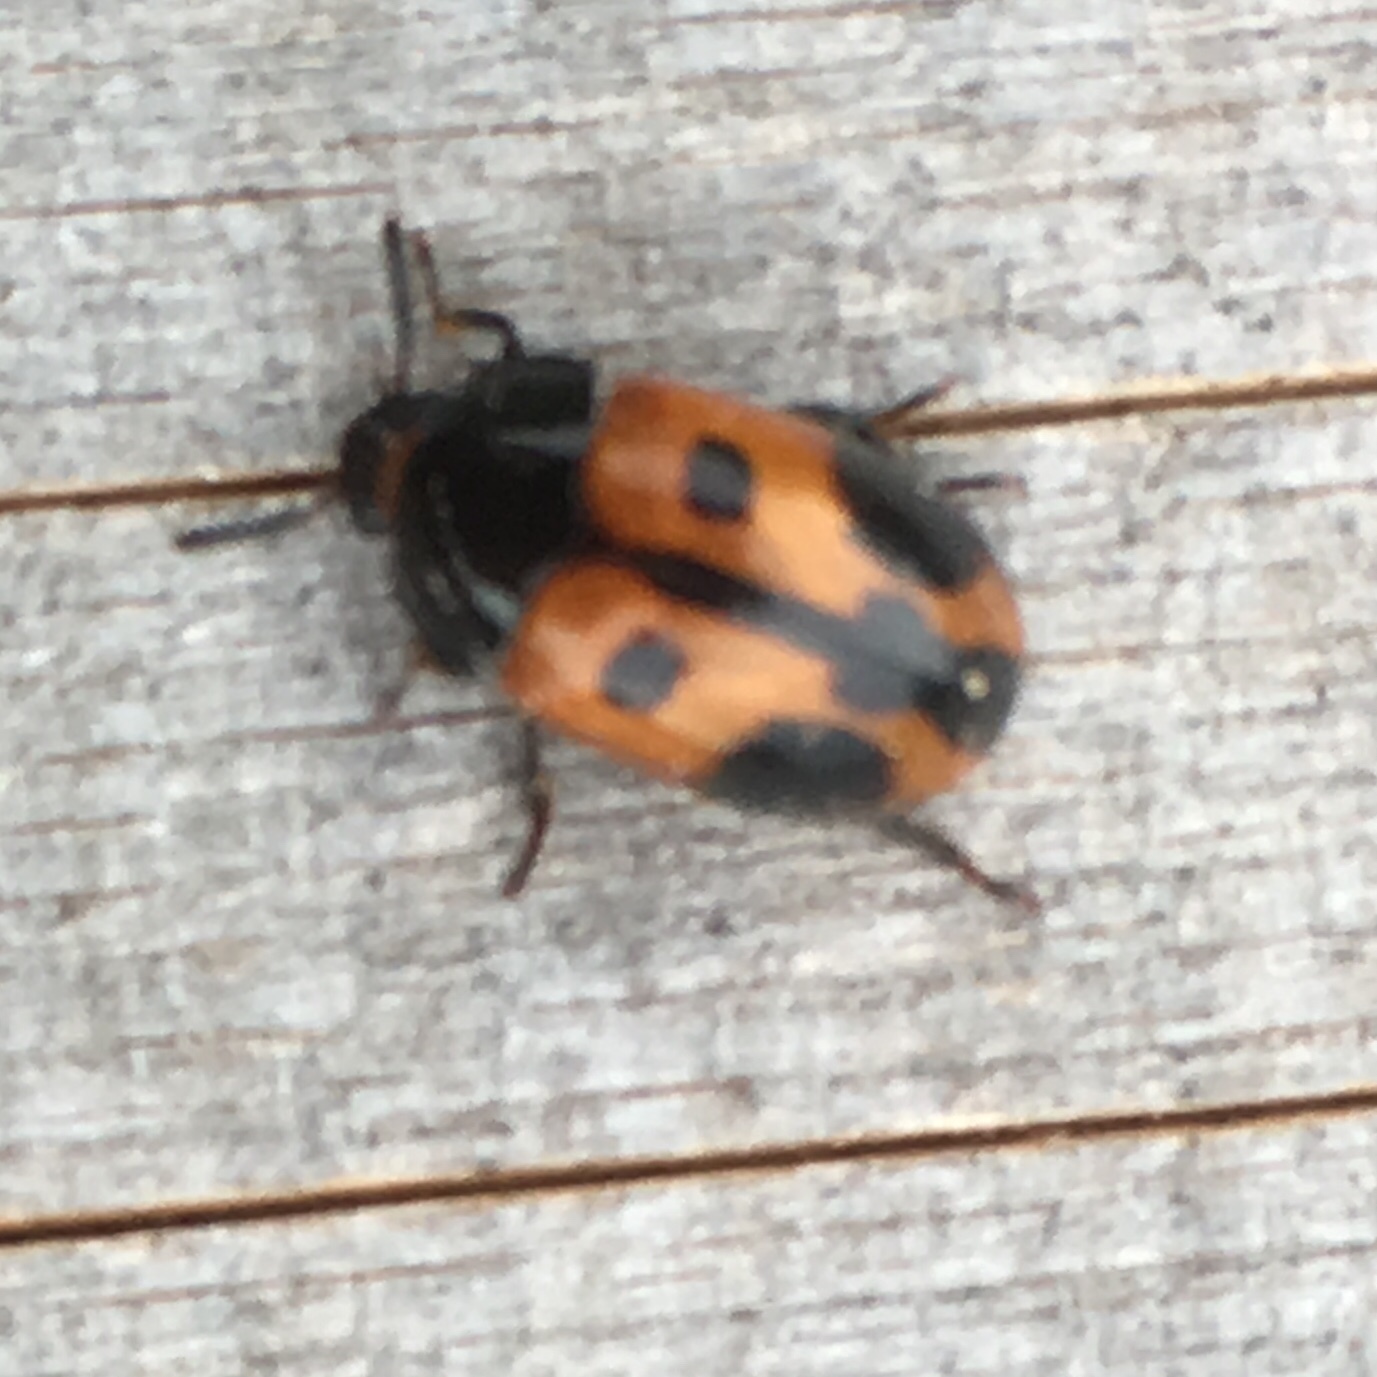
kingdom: Animalia
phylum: Arthropoda
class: Insecta
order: Coleoptera
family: Tenebrionidae
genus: Diaperis
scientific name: Diaperis maculata
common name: Darkling beetle
